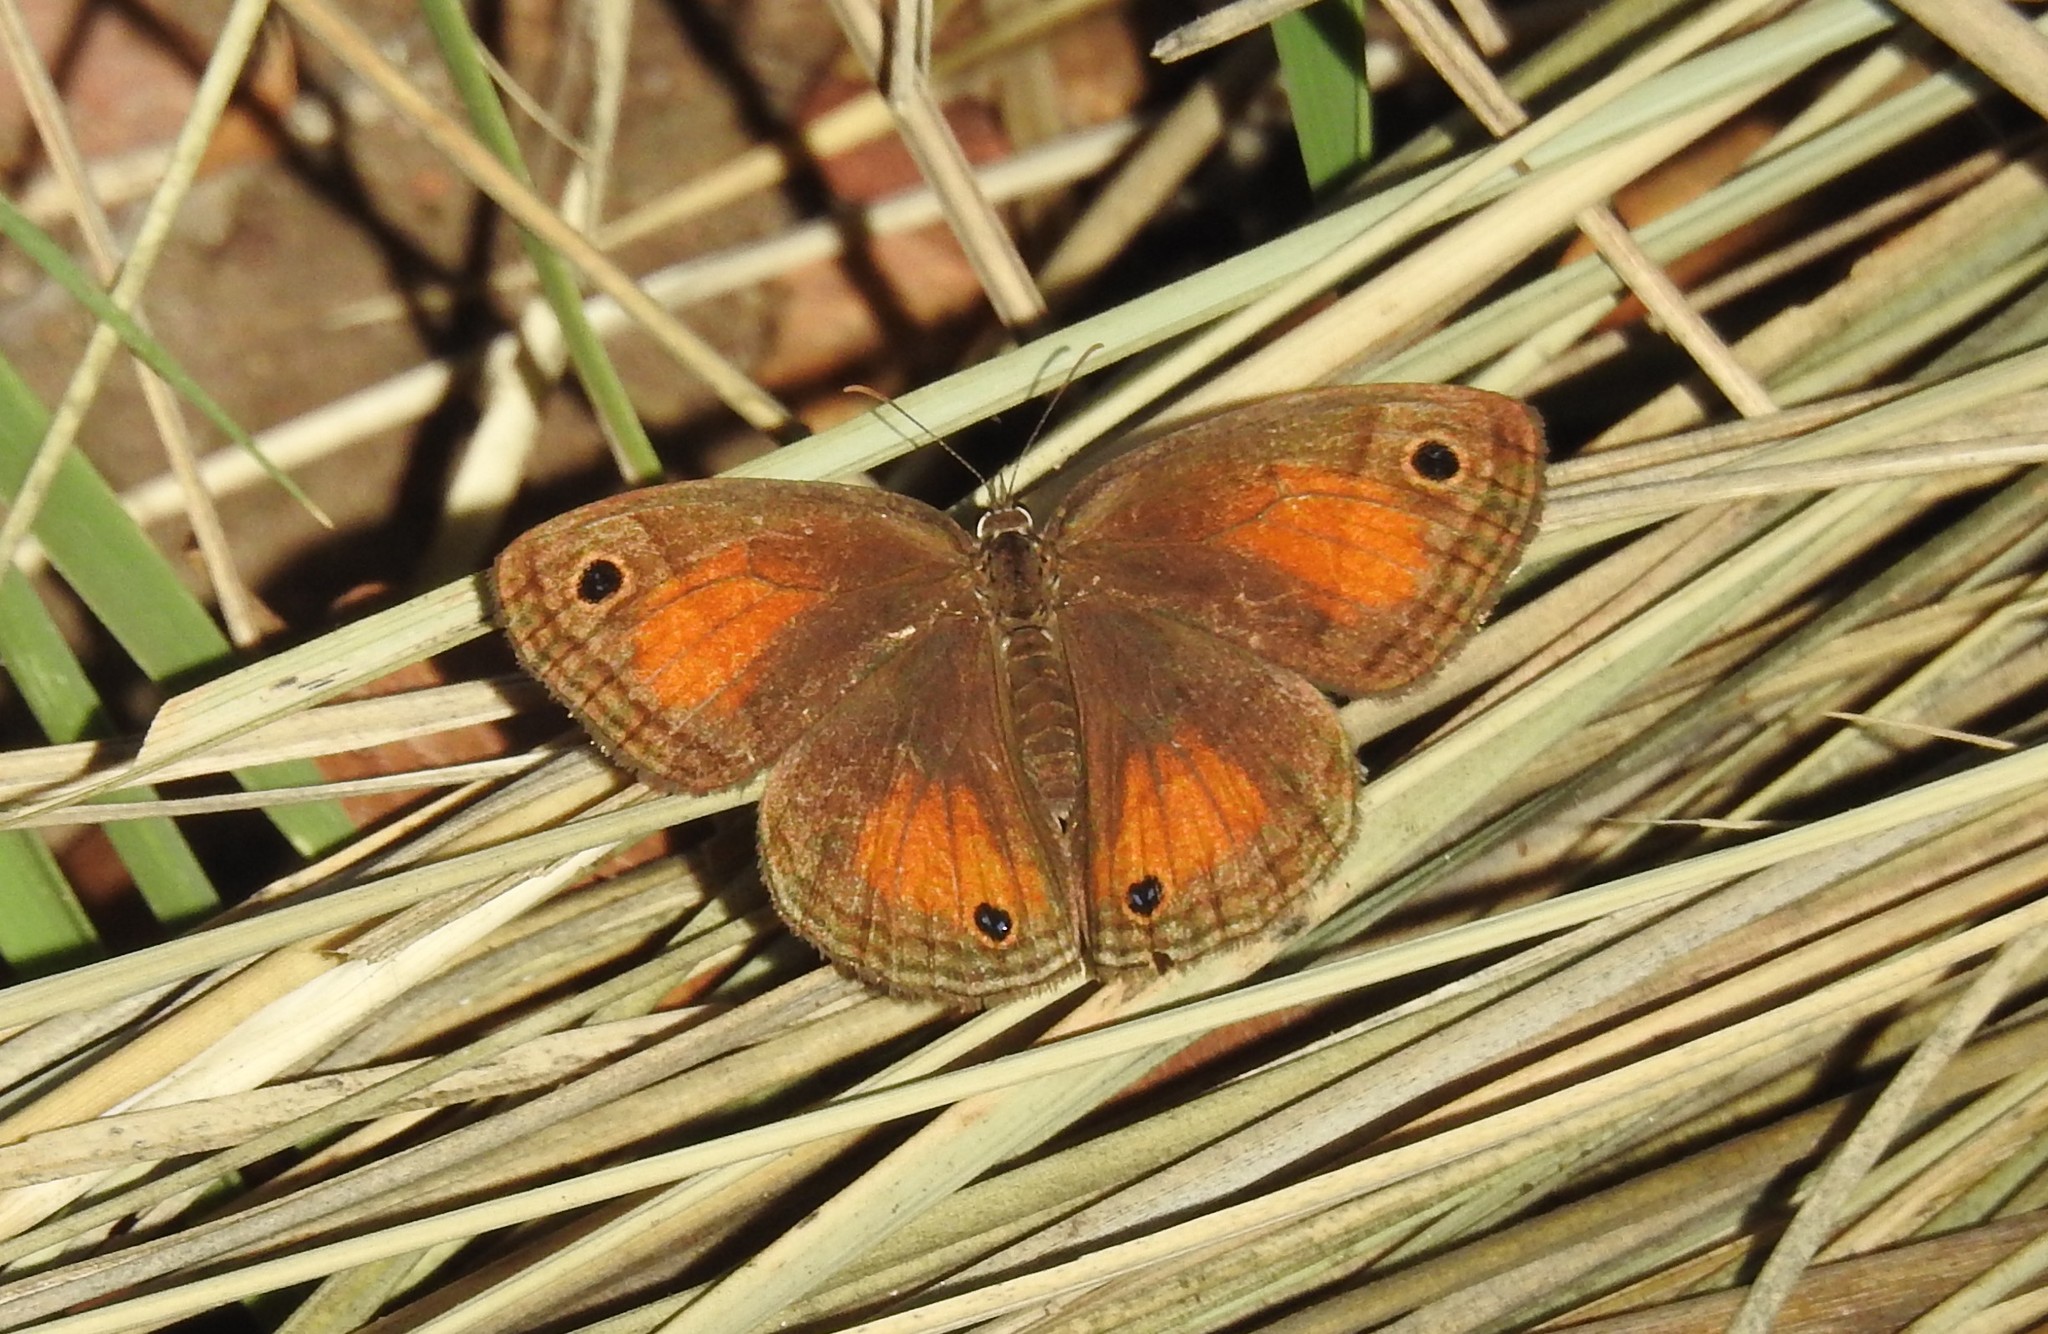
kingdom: Animalia
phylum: Arthropoda
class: Insecta
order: Lepidoptera
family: Nymphalidae
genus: Euptychia
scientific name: Euptychia
